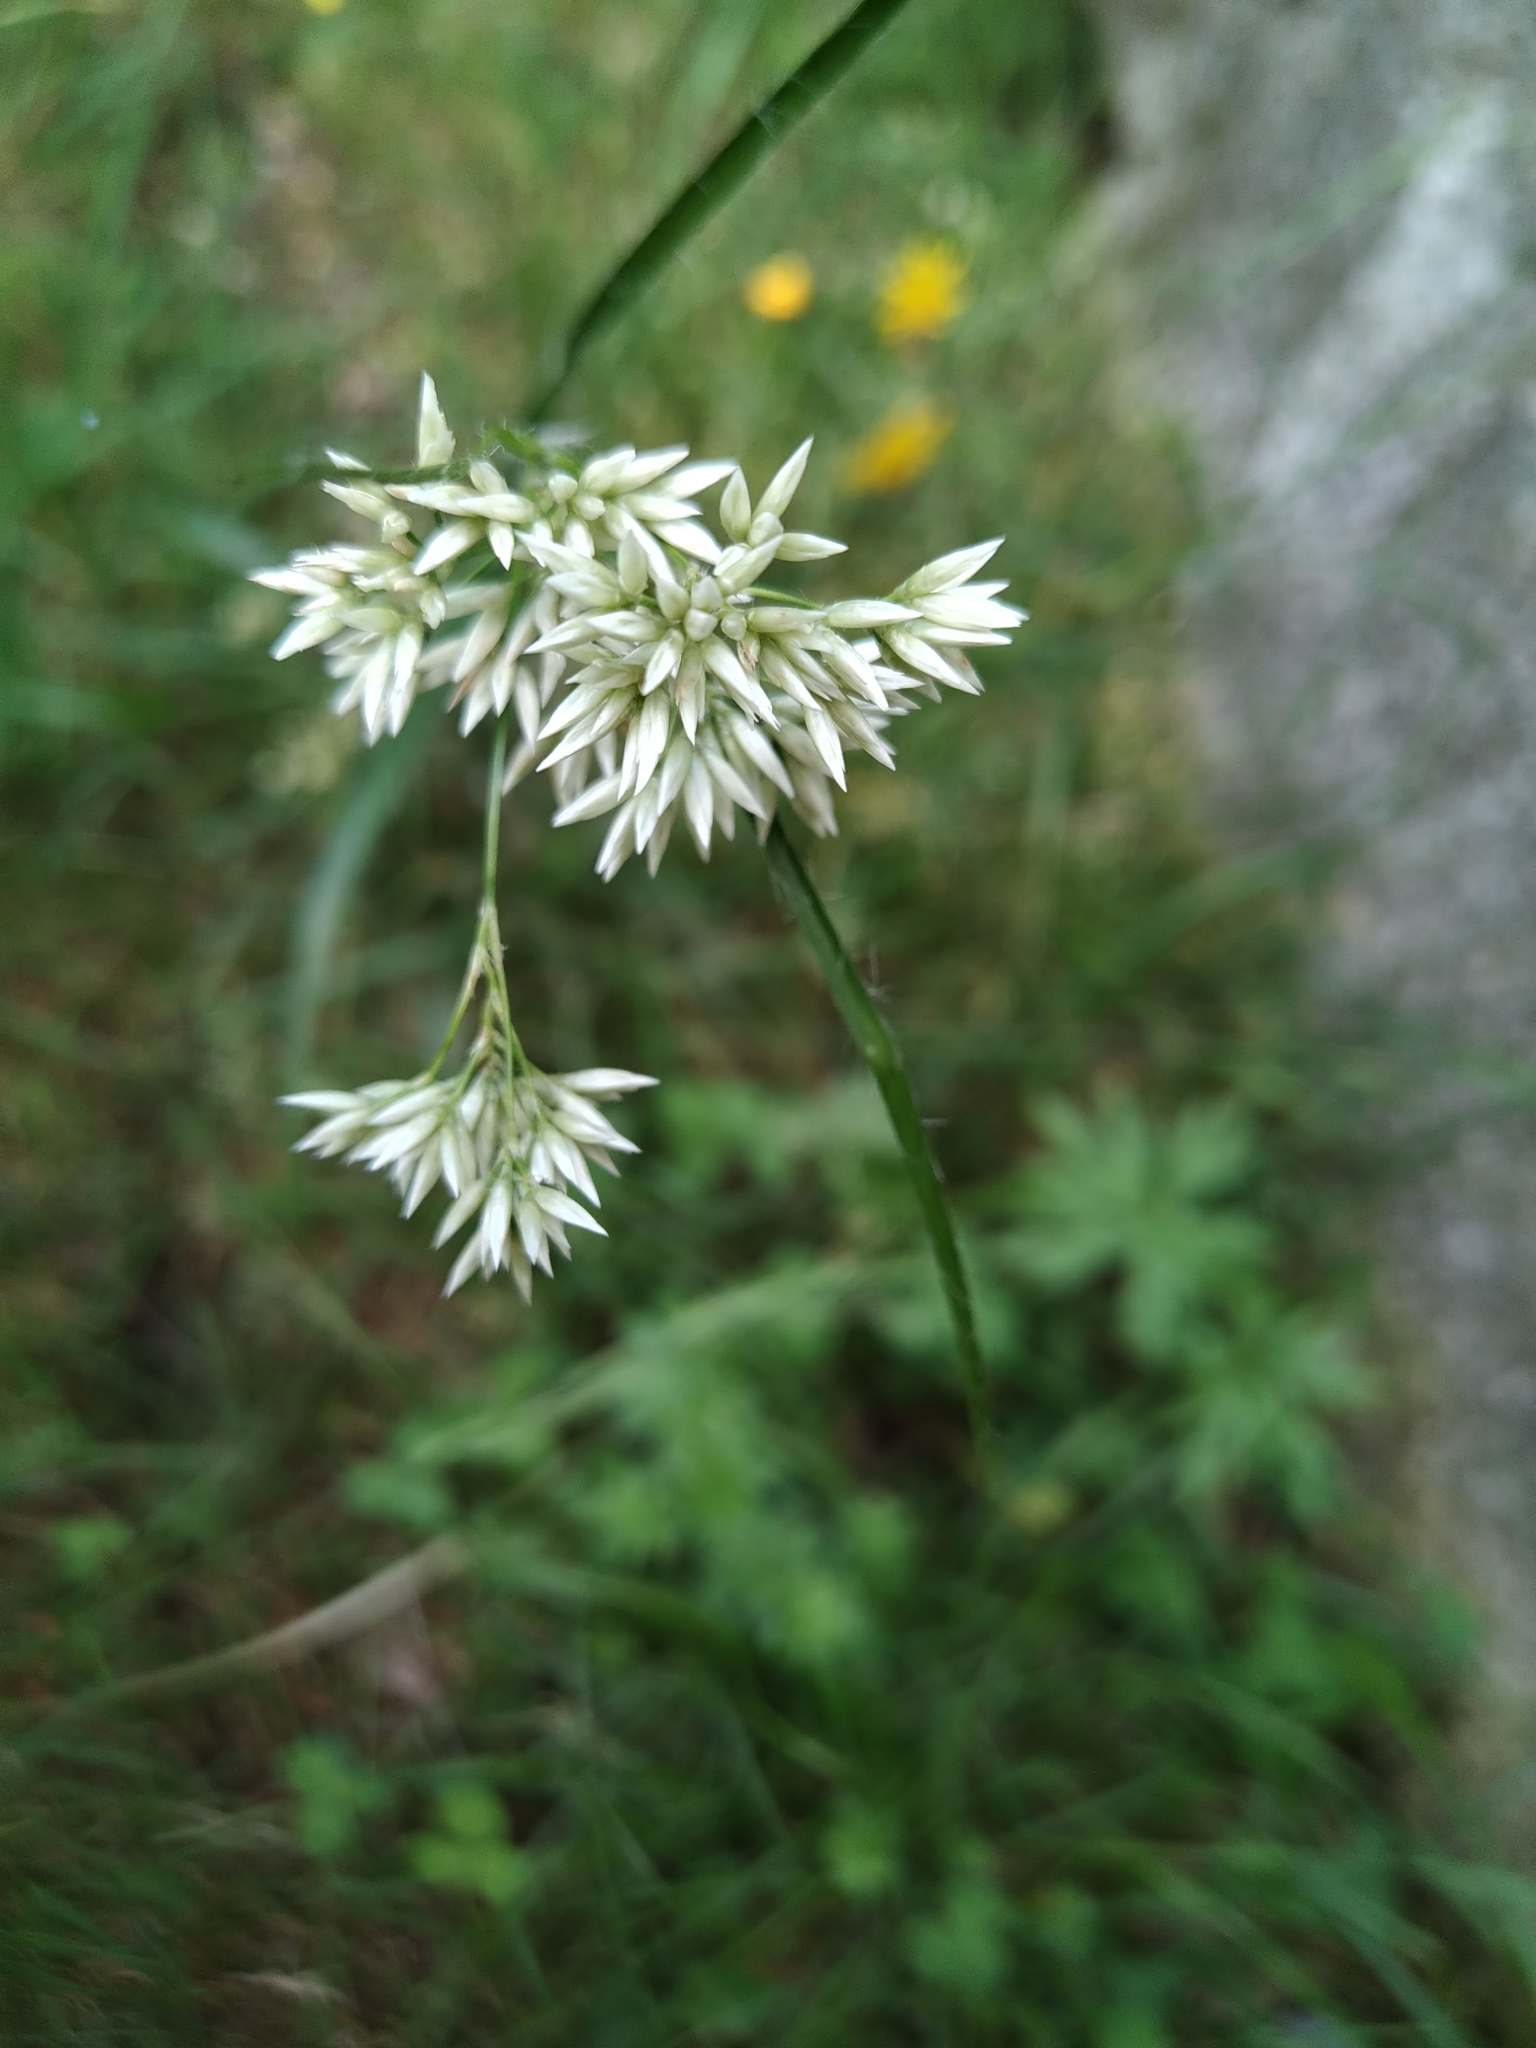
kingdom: Plantae
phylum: Tracheophyta
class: Liliopsida
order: Poales
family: Juncaceae
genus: Luzula
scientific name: Luzula nivea
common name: Snow-white wood-rush
